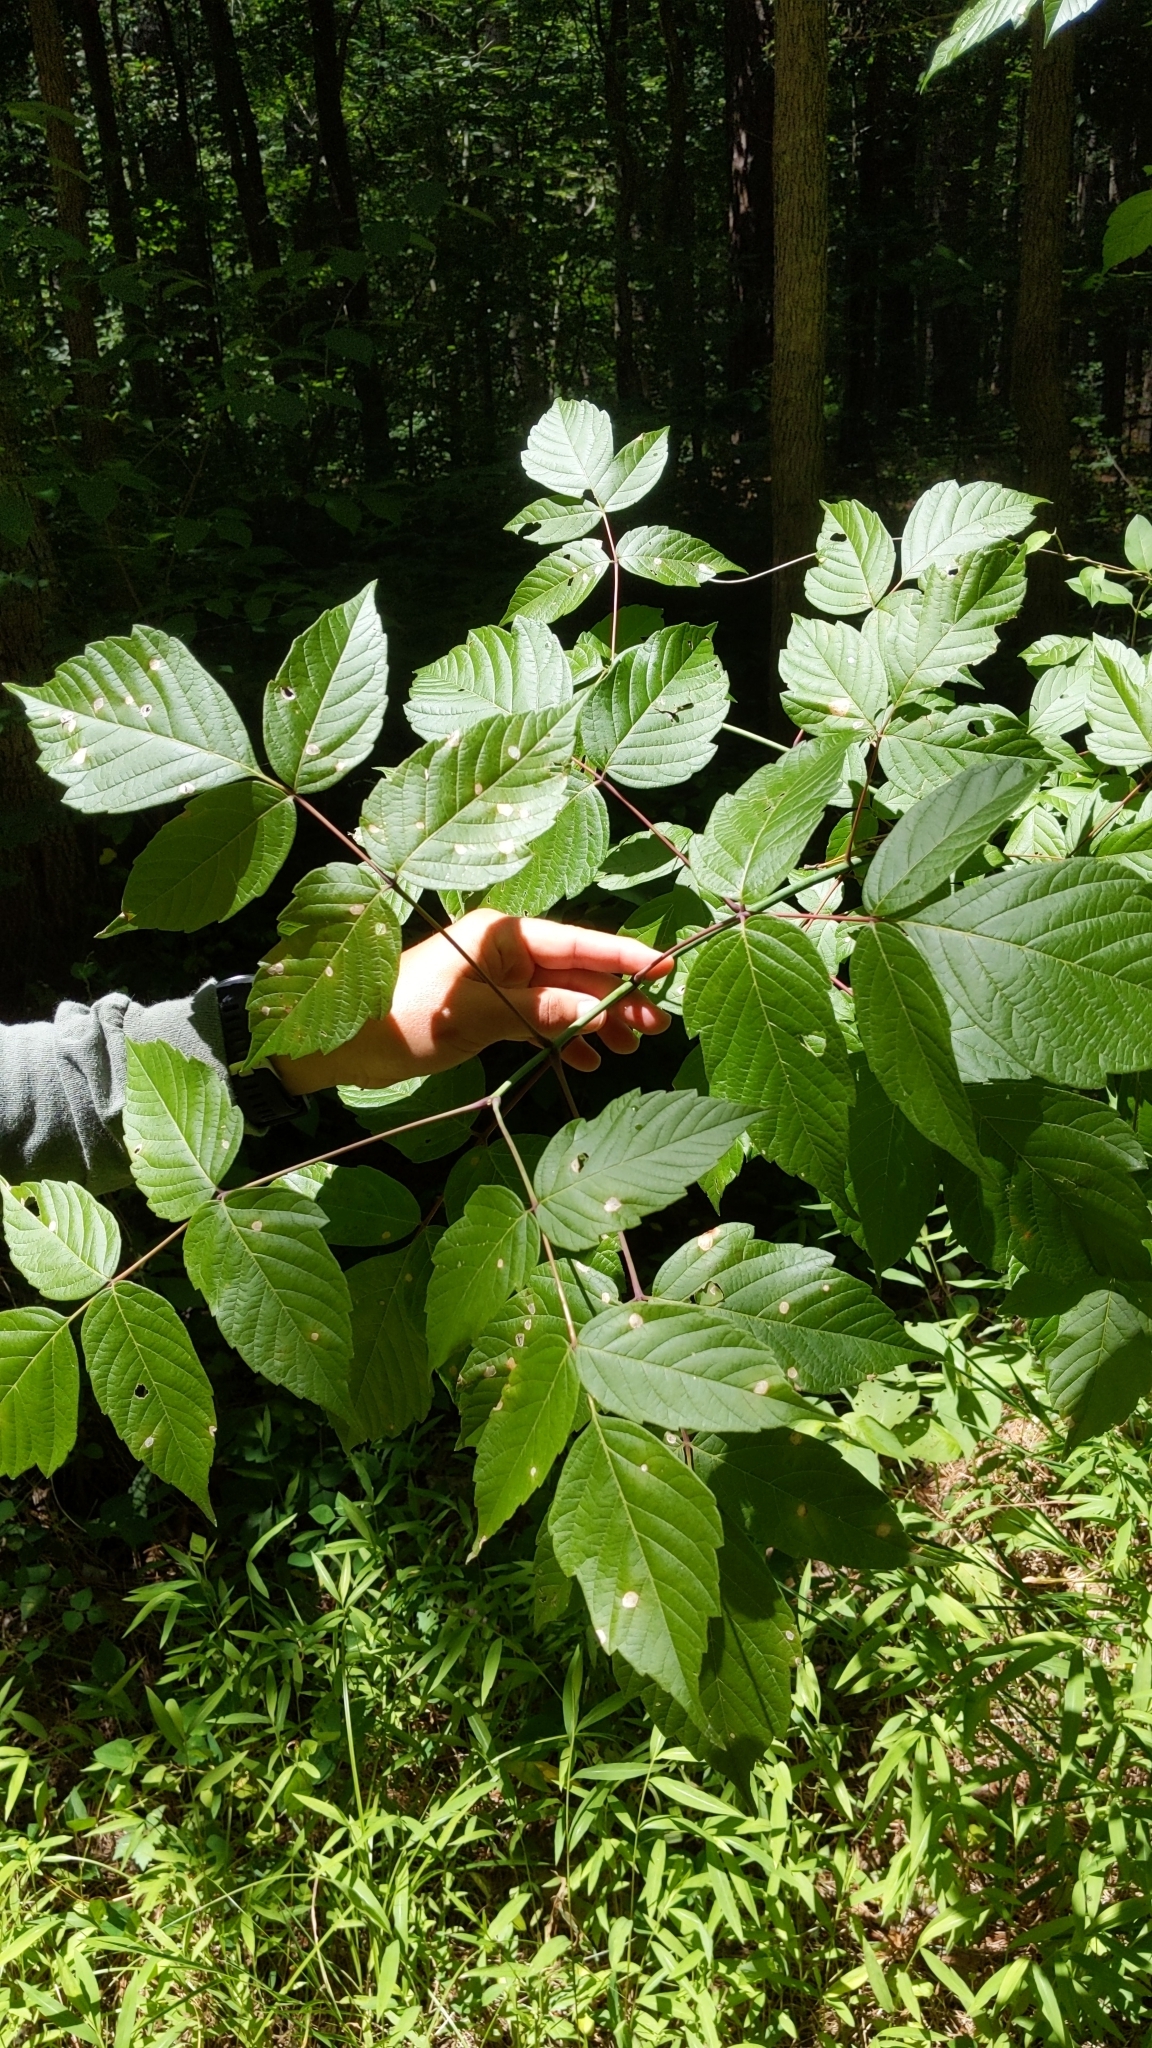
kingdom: Plantae
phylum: Tracheophyta
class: Magnoliopsida
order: Sapindales
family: Sapindaceae
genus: Acer
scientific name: Acer negundo
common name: Ashleaf maple
